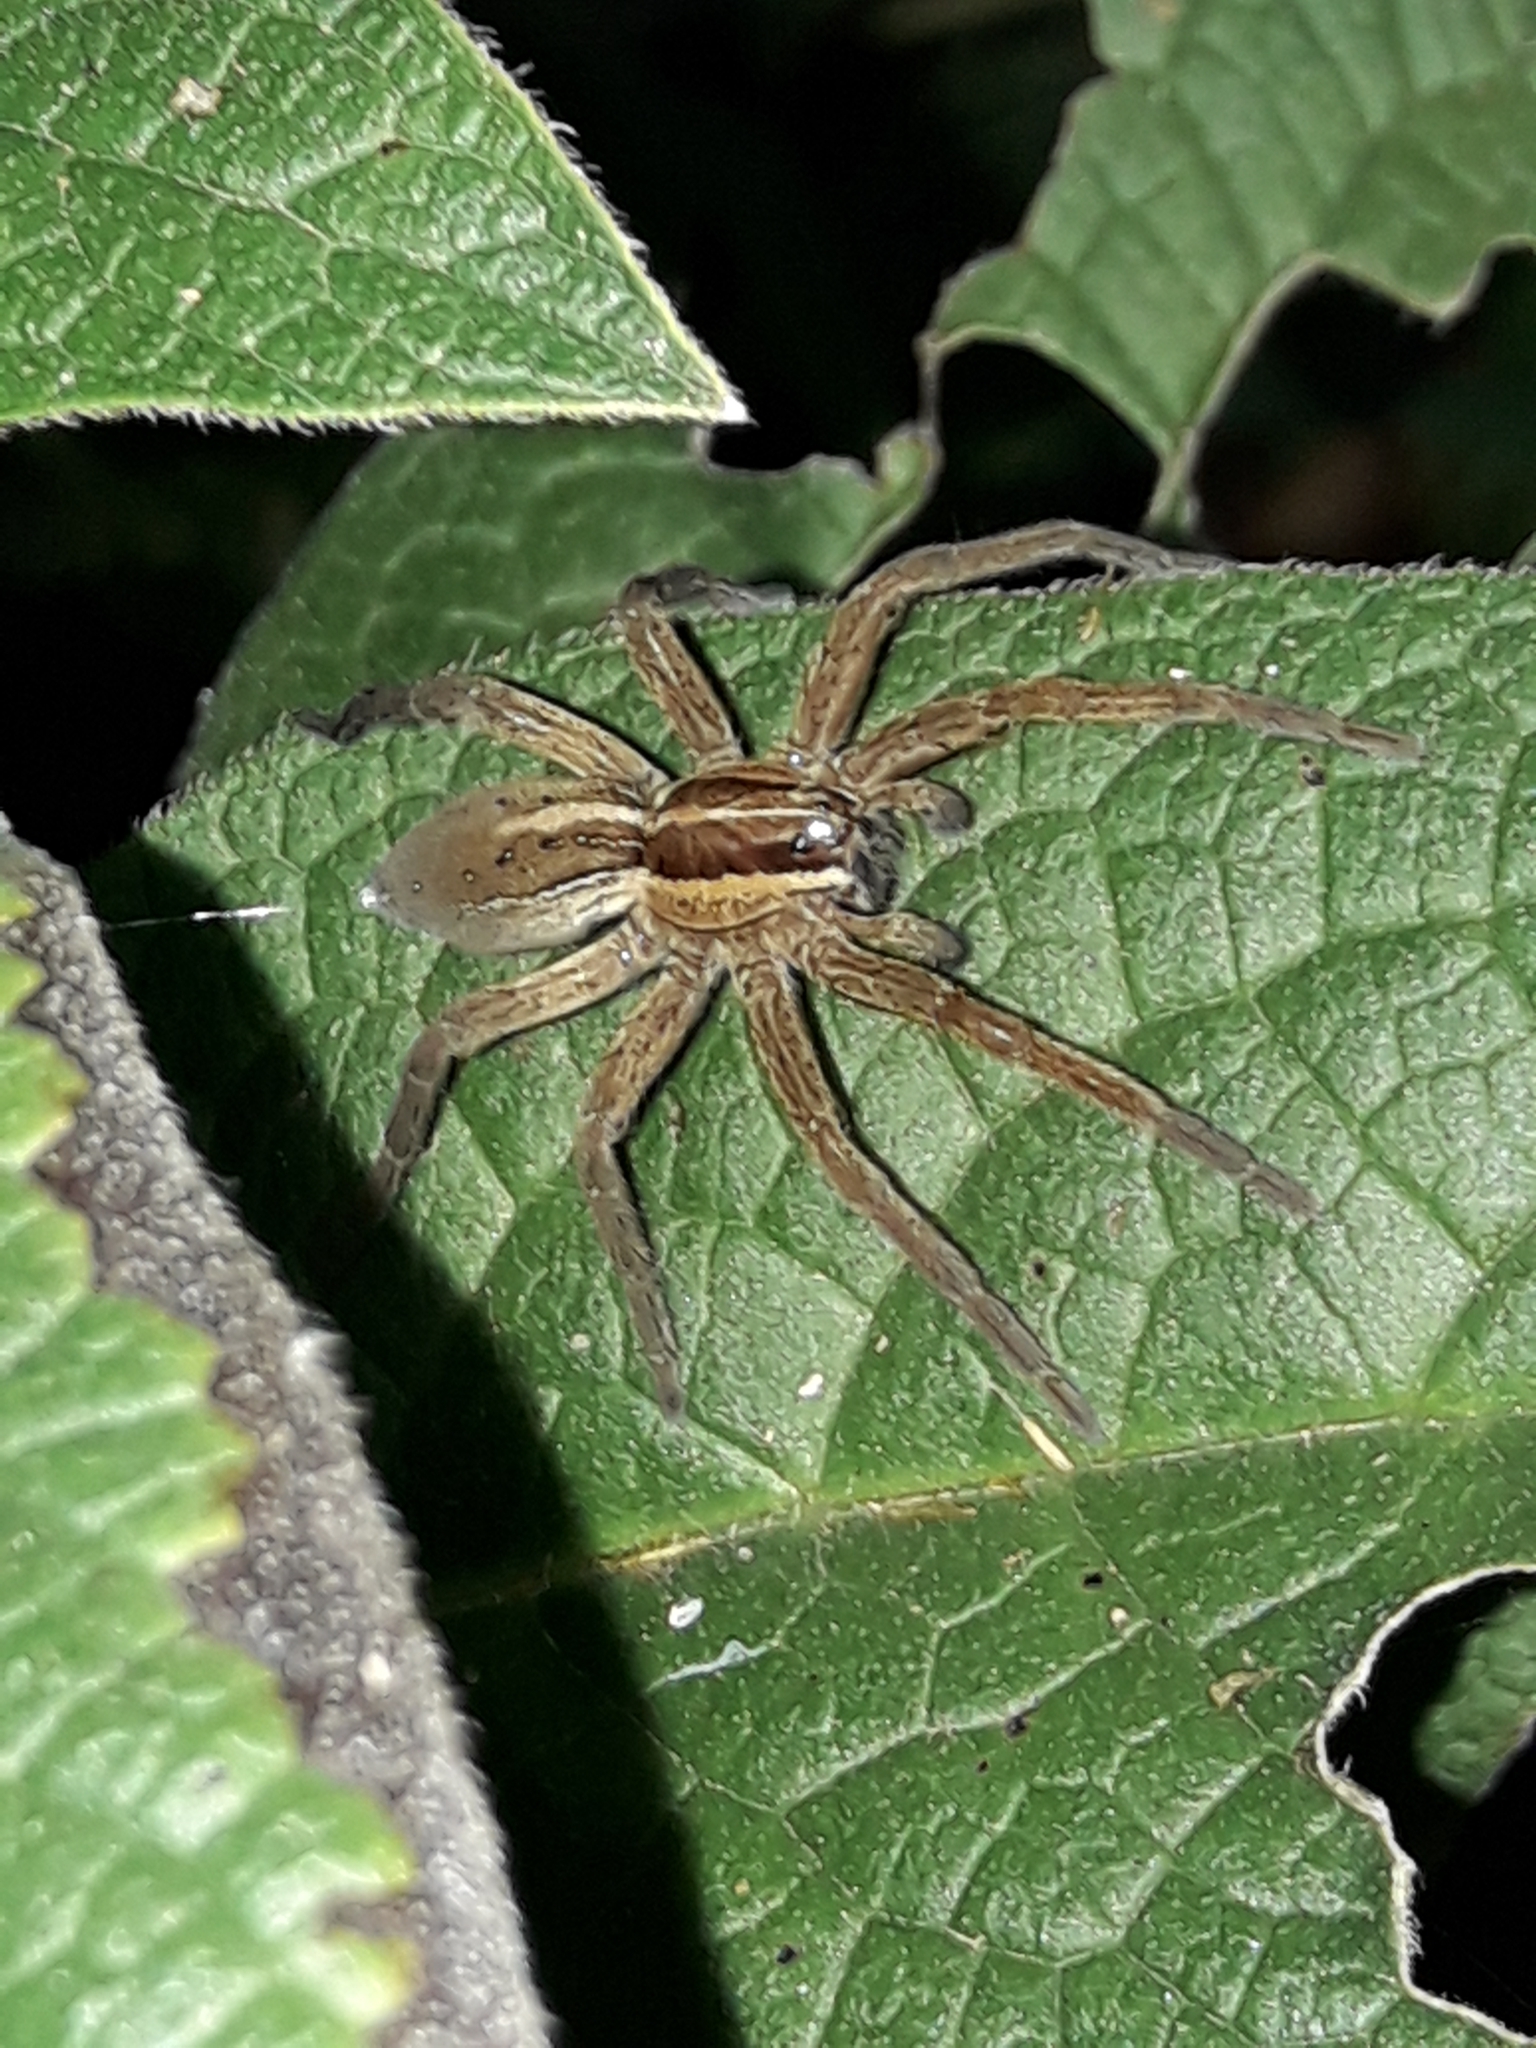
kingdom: Animalia
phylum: Arthropoda
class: Arachnida
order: Araneae
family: Pisauridae
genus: Dolomedes
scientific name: Dolomedes minor
